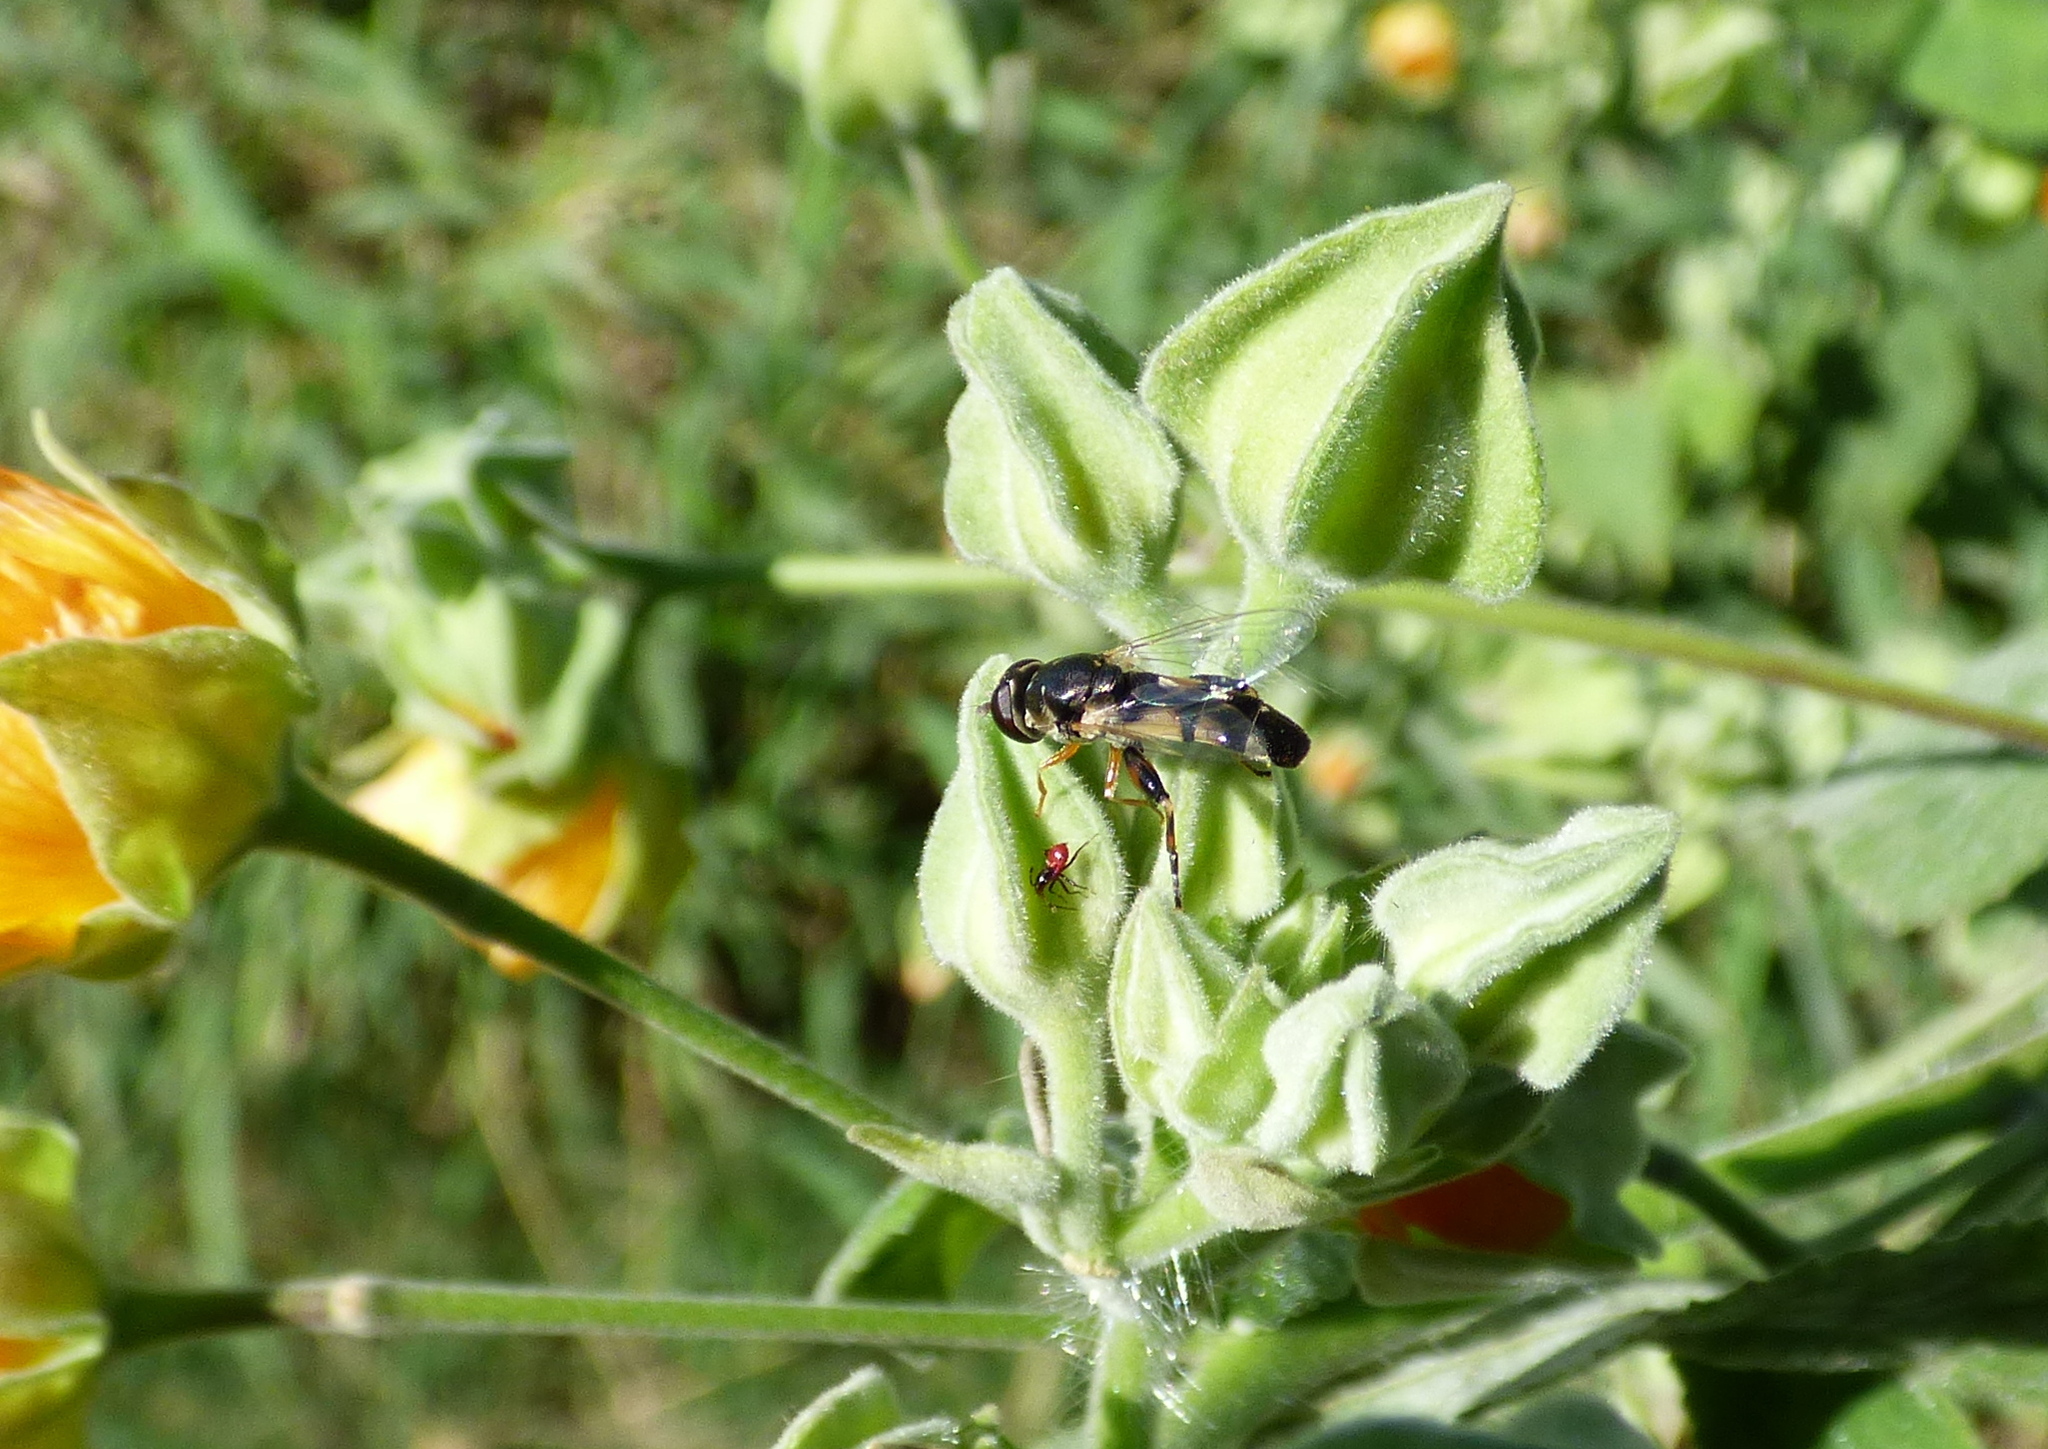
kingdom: Animalia
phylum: Arthropoda
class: Insecta
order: Diptera
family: Syrphidae
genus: Syritta
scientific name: Syritta flaviventris
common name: Syrphid fly
